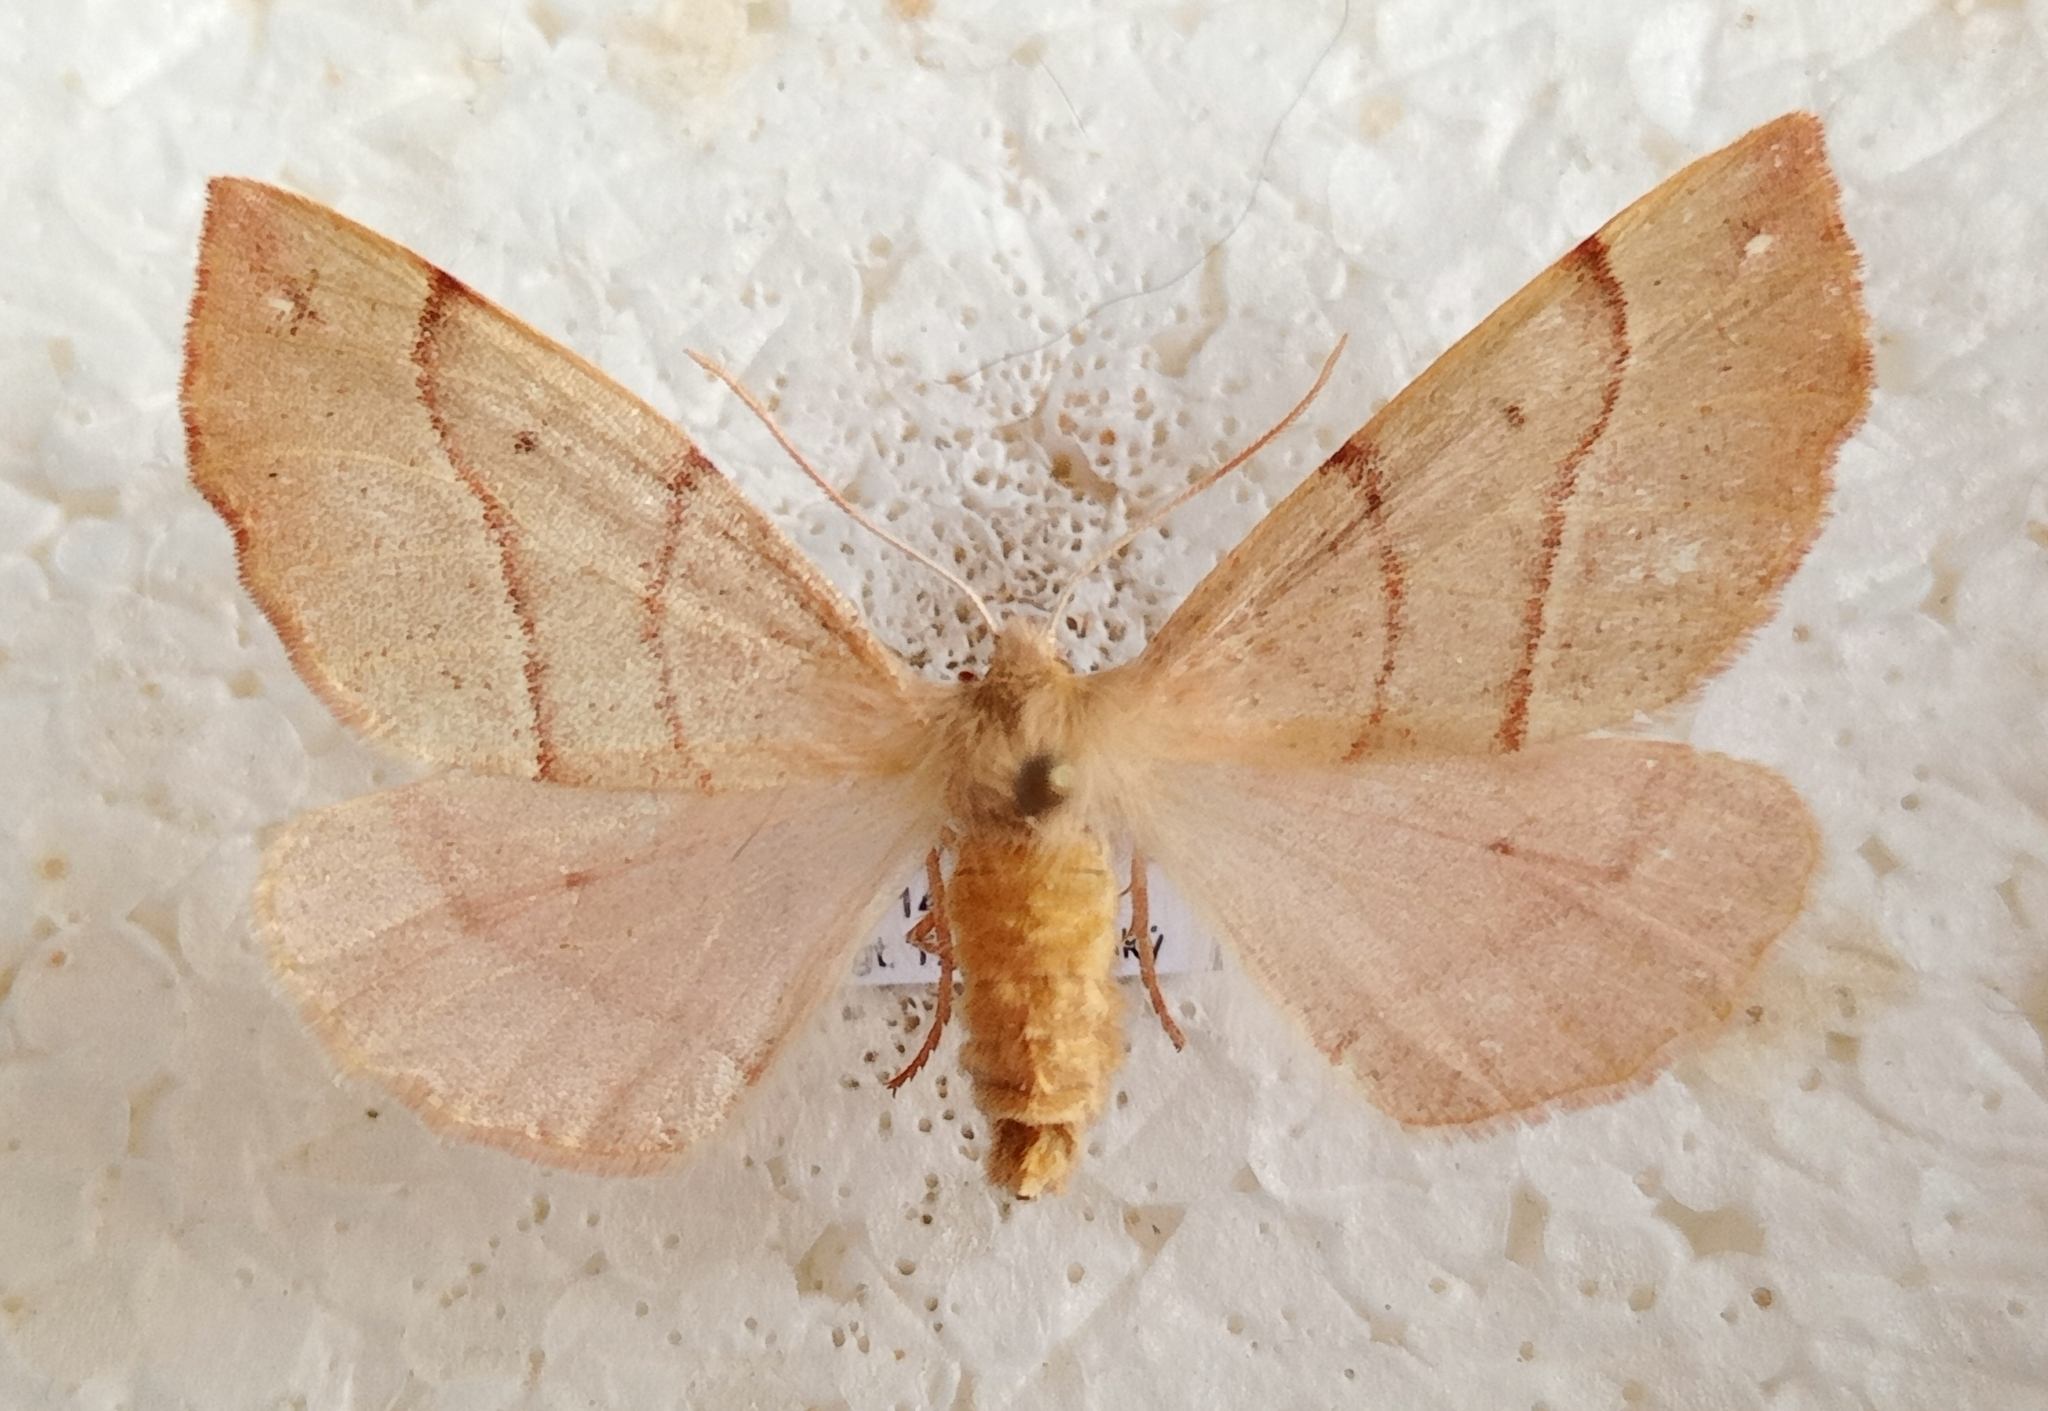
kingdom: Animalia
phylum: Arthropoda
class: Insecta
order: Lepidoptera
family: Geometridae
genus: Colotois
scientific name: Colotois pennaria
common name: Feathered thorn
